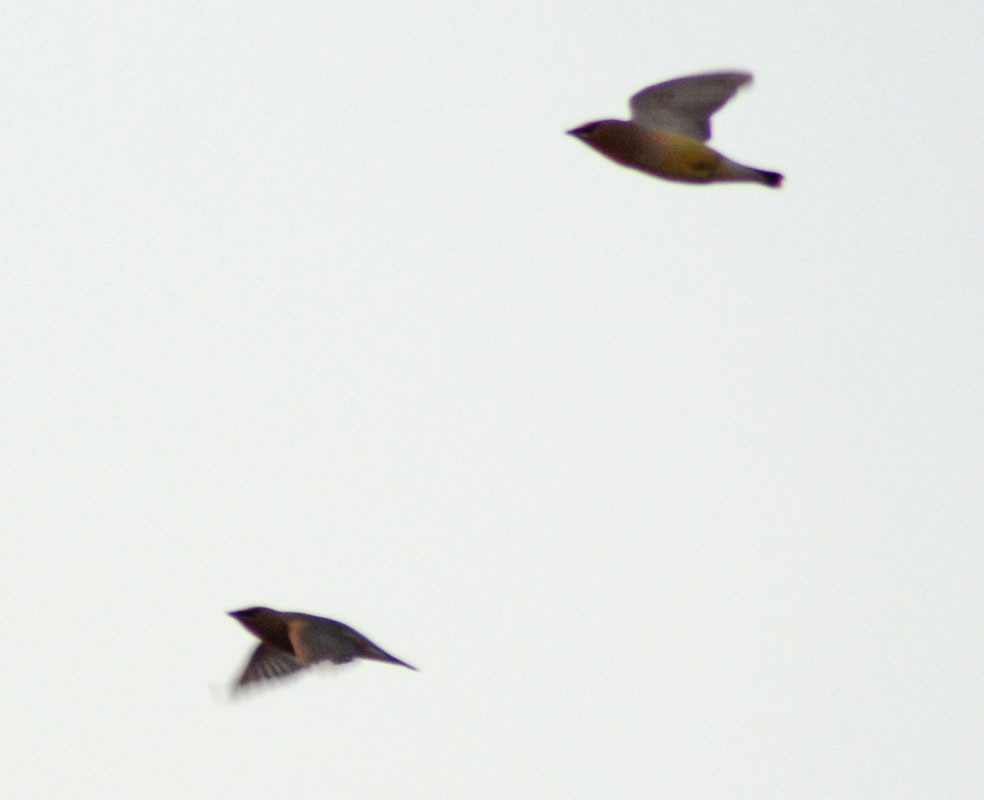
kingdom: Animalia
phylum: Chordata
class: Aves
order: Passeriformes
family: Bombycillidae
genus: Bombycilla
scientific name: Bombycilla cedrorum
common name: Cedar waxwing
